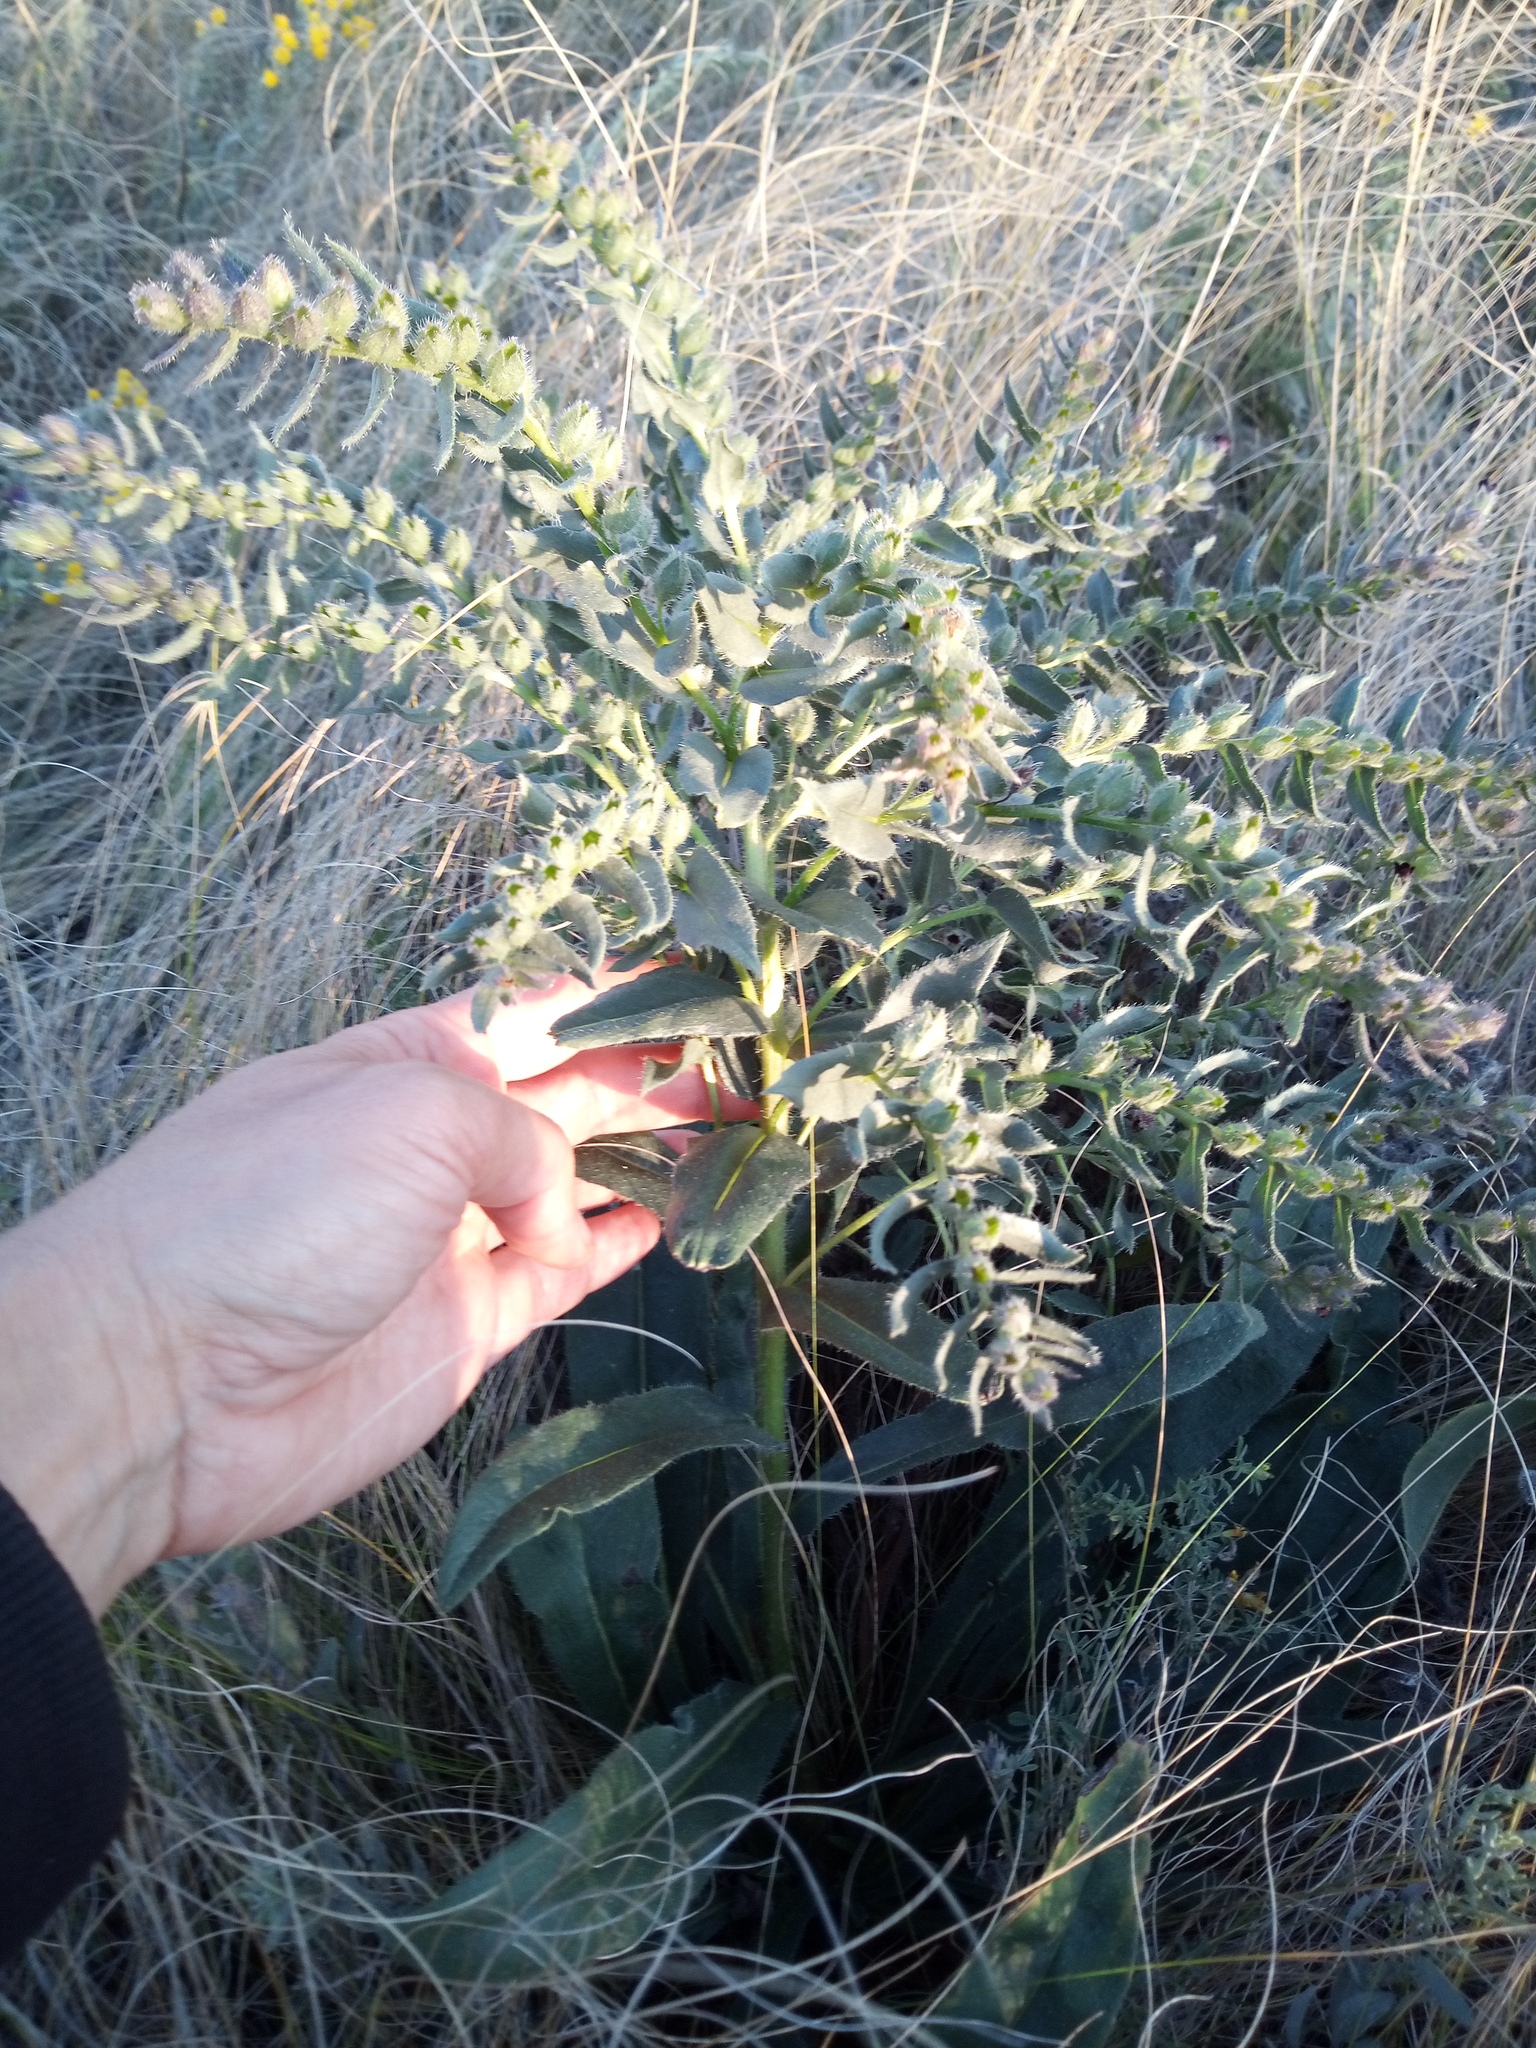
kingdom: Plantae
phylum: Tracheophyta
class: Magnoliopsida
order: Boraginales
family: Boraginaceae
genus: Nonea
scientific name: Nonea pulla
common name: Brown nonea
